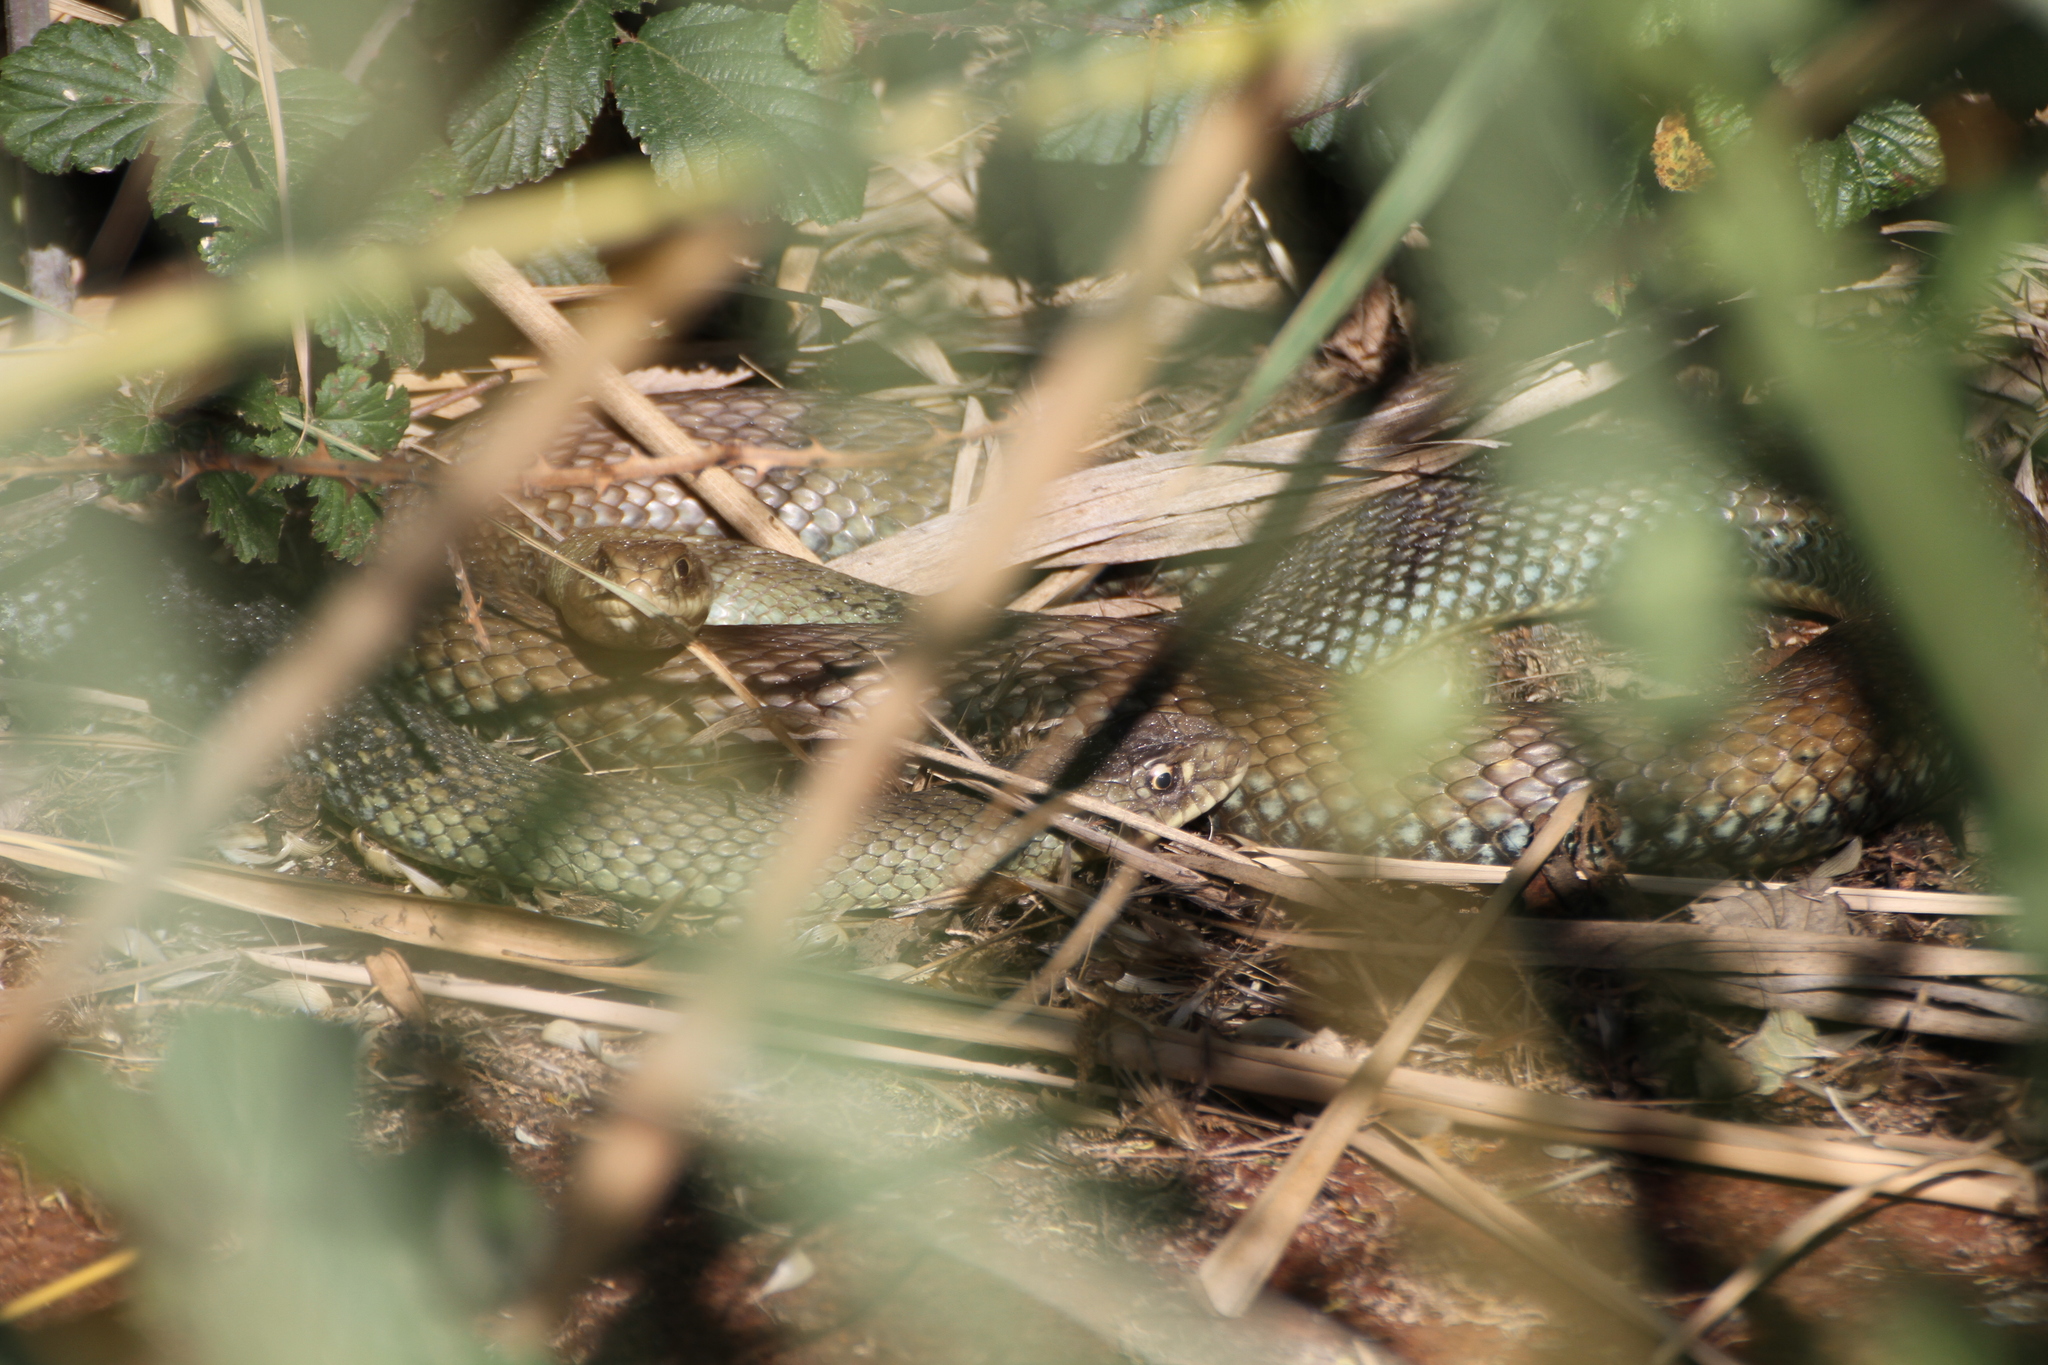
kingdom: Animalia
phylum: Chordata
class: Squamata
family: Psammophiidae
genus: Malpolon
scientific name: Malpolon monspessulanus
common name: Montpellier snake
